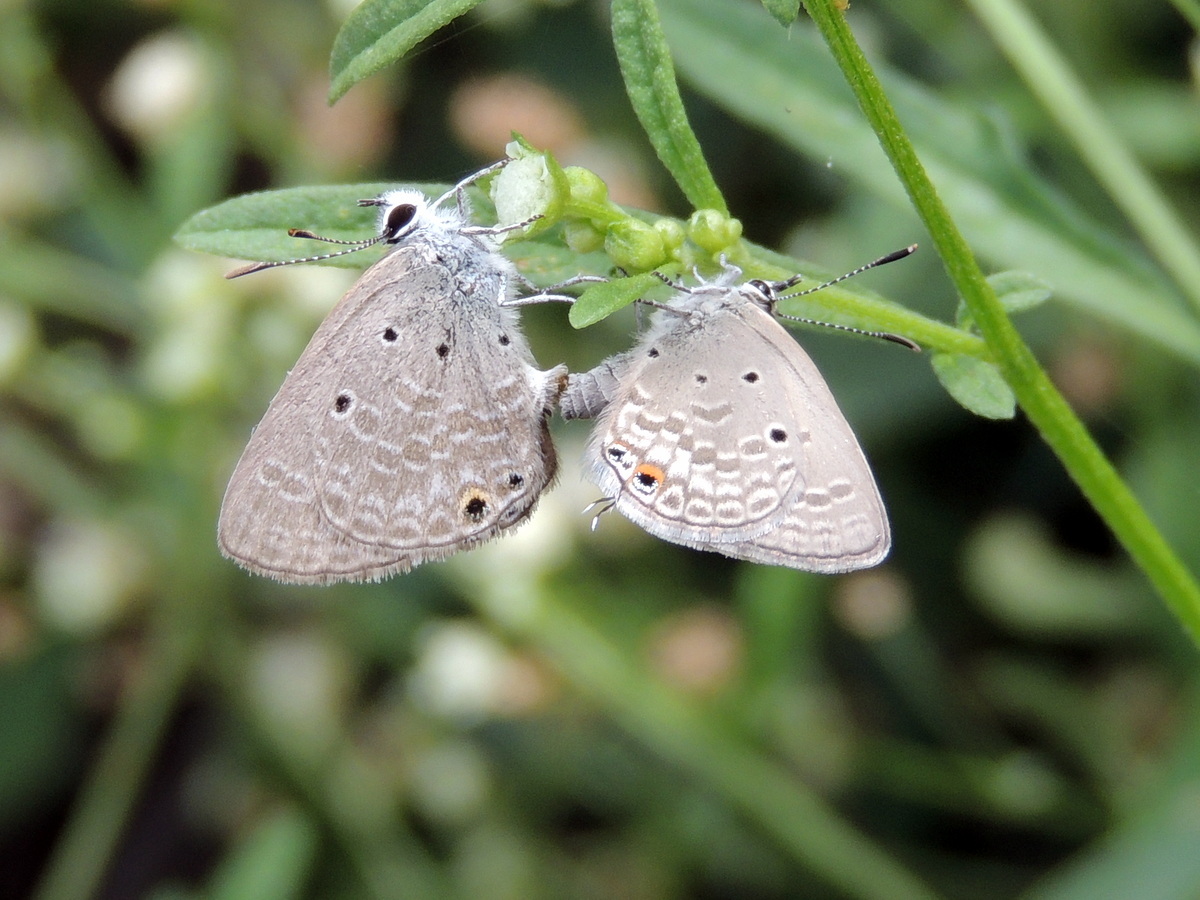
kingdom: Animalia
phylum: Arthropoda
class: Insecta
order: Lepidoptera
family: Lycaenidae
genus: Chilades
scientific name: Chilades parrhasius
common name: Small cupid
